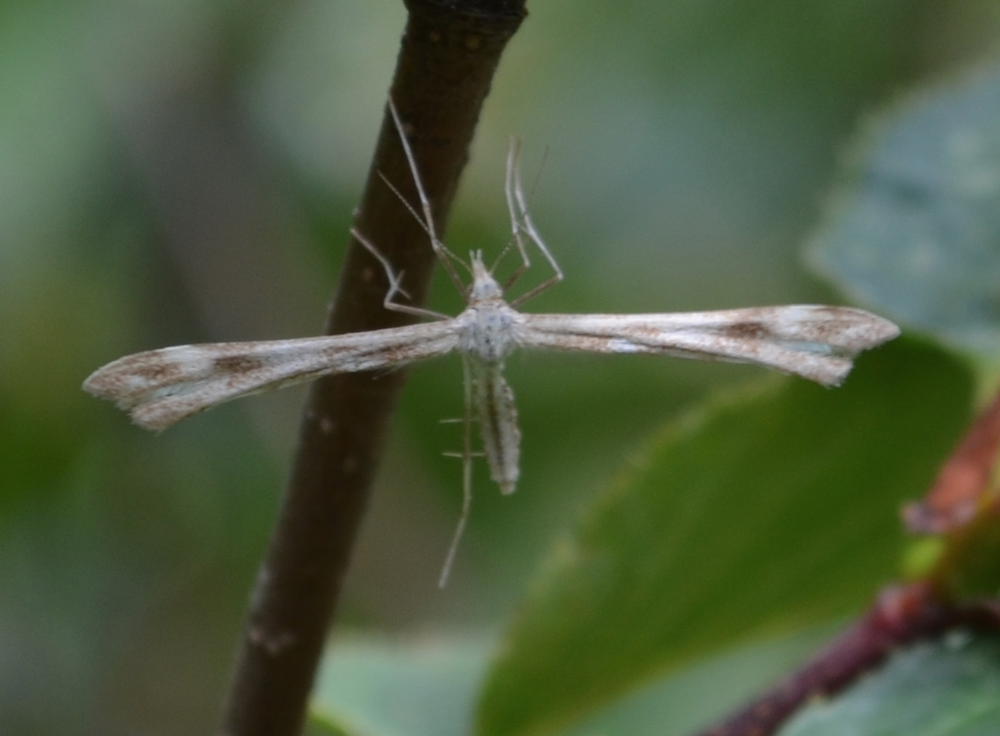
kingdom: Animalia
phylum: Arthropoda
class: Insecta
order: Lepidoptera
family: Pterophoridae
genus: Gillmeria
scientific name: Gillmeria pallidactyla
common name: Yarrow plume
